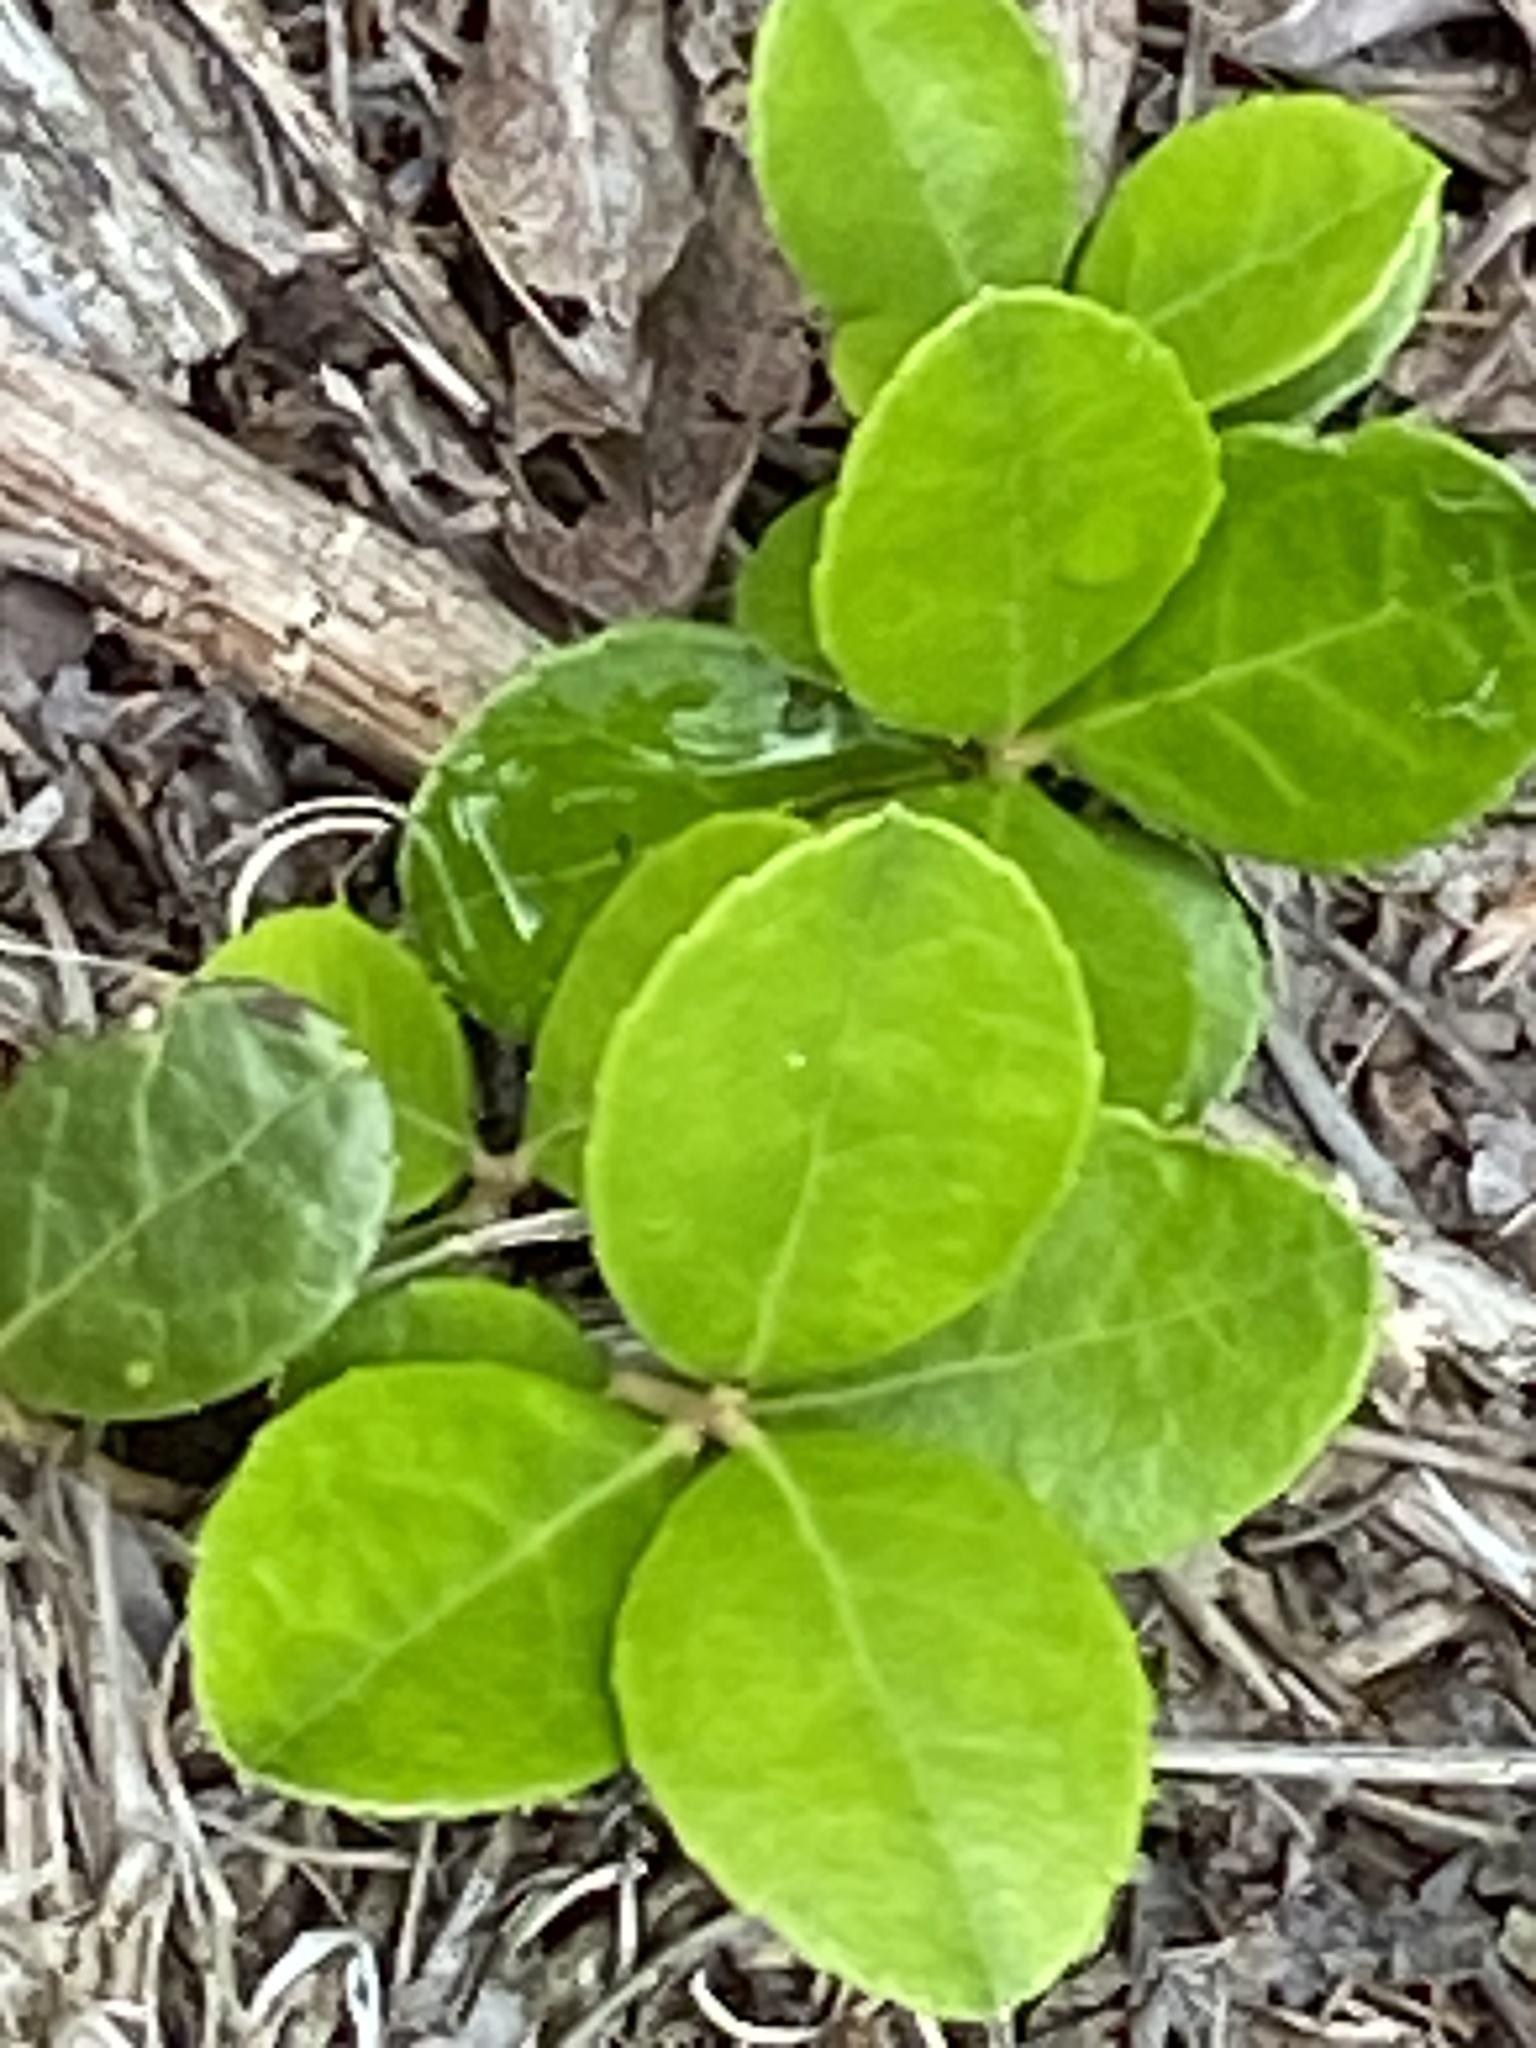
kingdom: Plantae
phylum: Tracheophyta
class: Magnoliopsida
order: Ericales
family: Ericaceae
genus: Gaultheria
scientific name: Gaultheria procumbens
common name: Checkerberry
